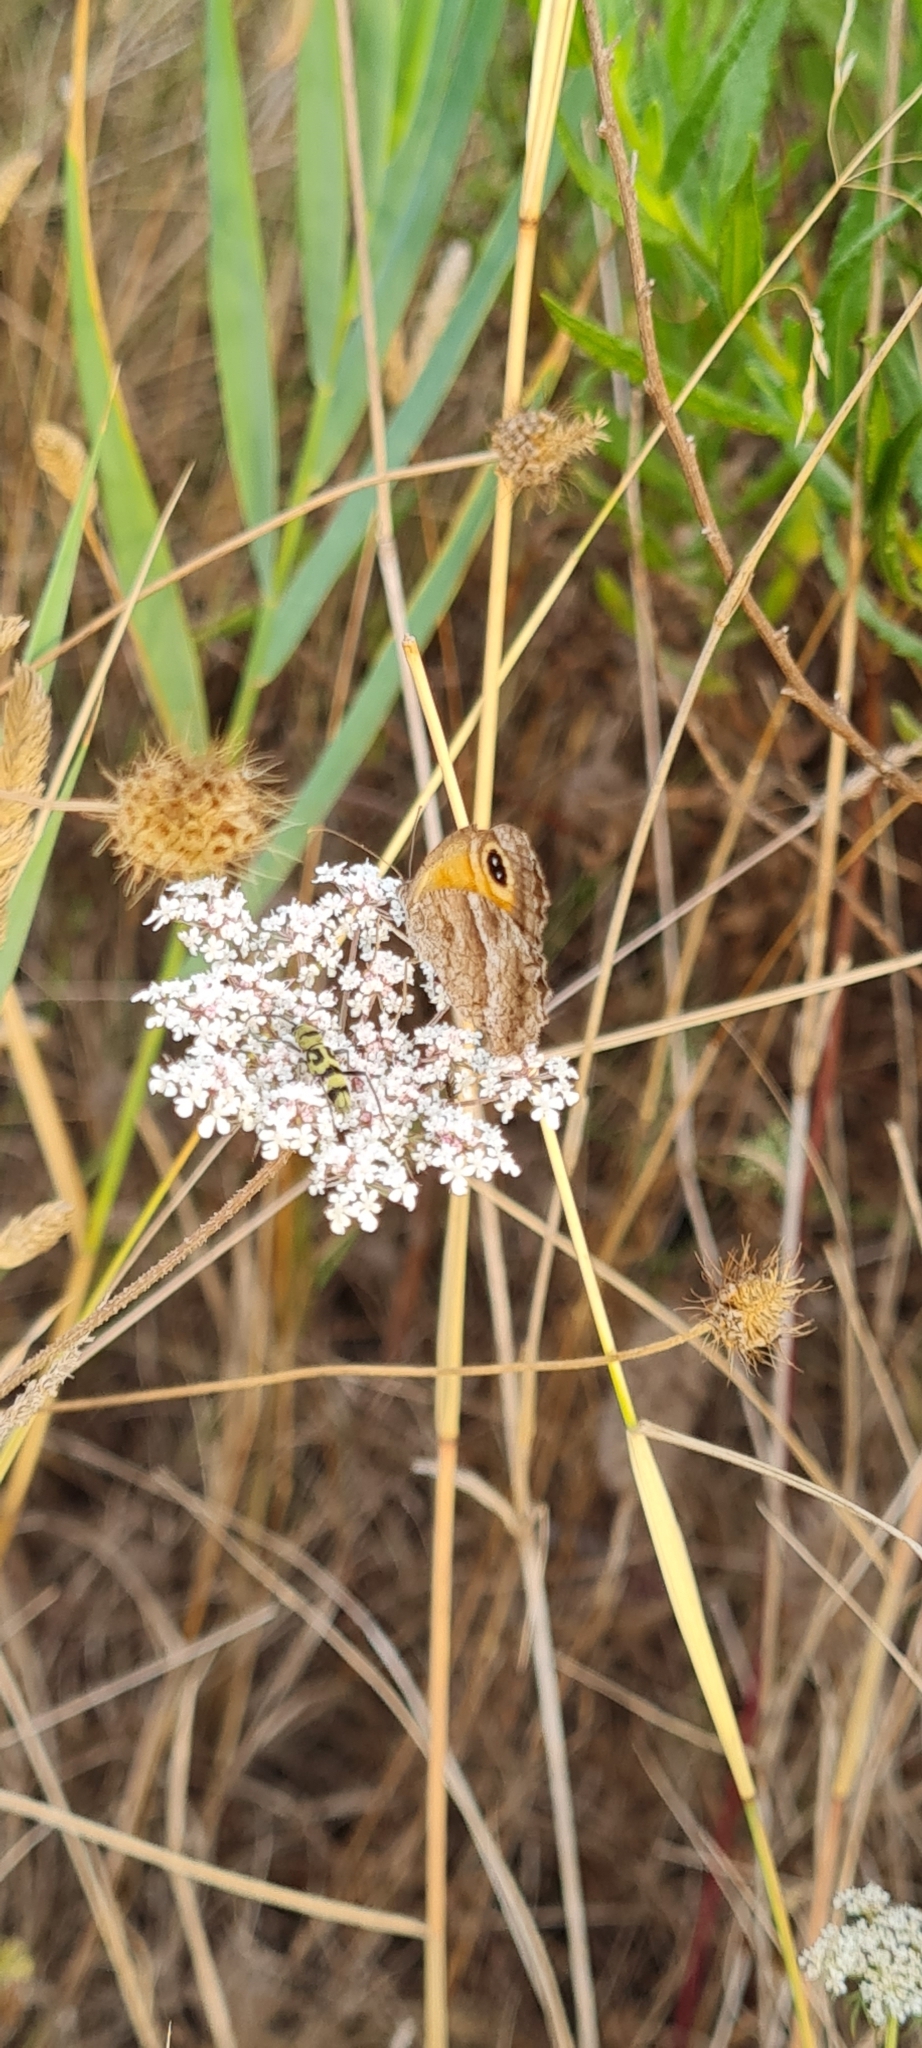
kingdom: Animalia
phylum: Arthropoda
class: Insecta
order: Lepidoptera
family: Nymphalidae
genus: Pyronia
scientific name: Pyronia cecilia
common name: Southern gatekeeper
